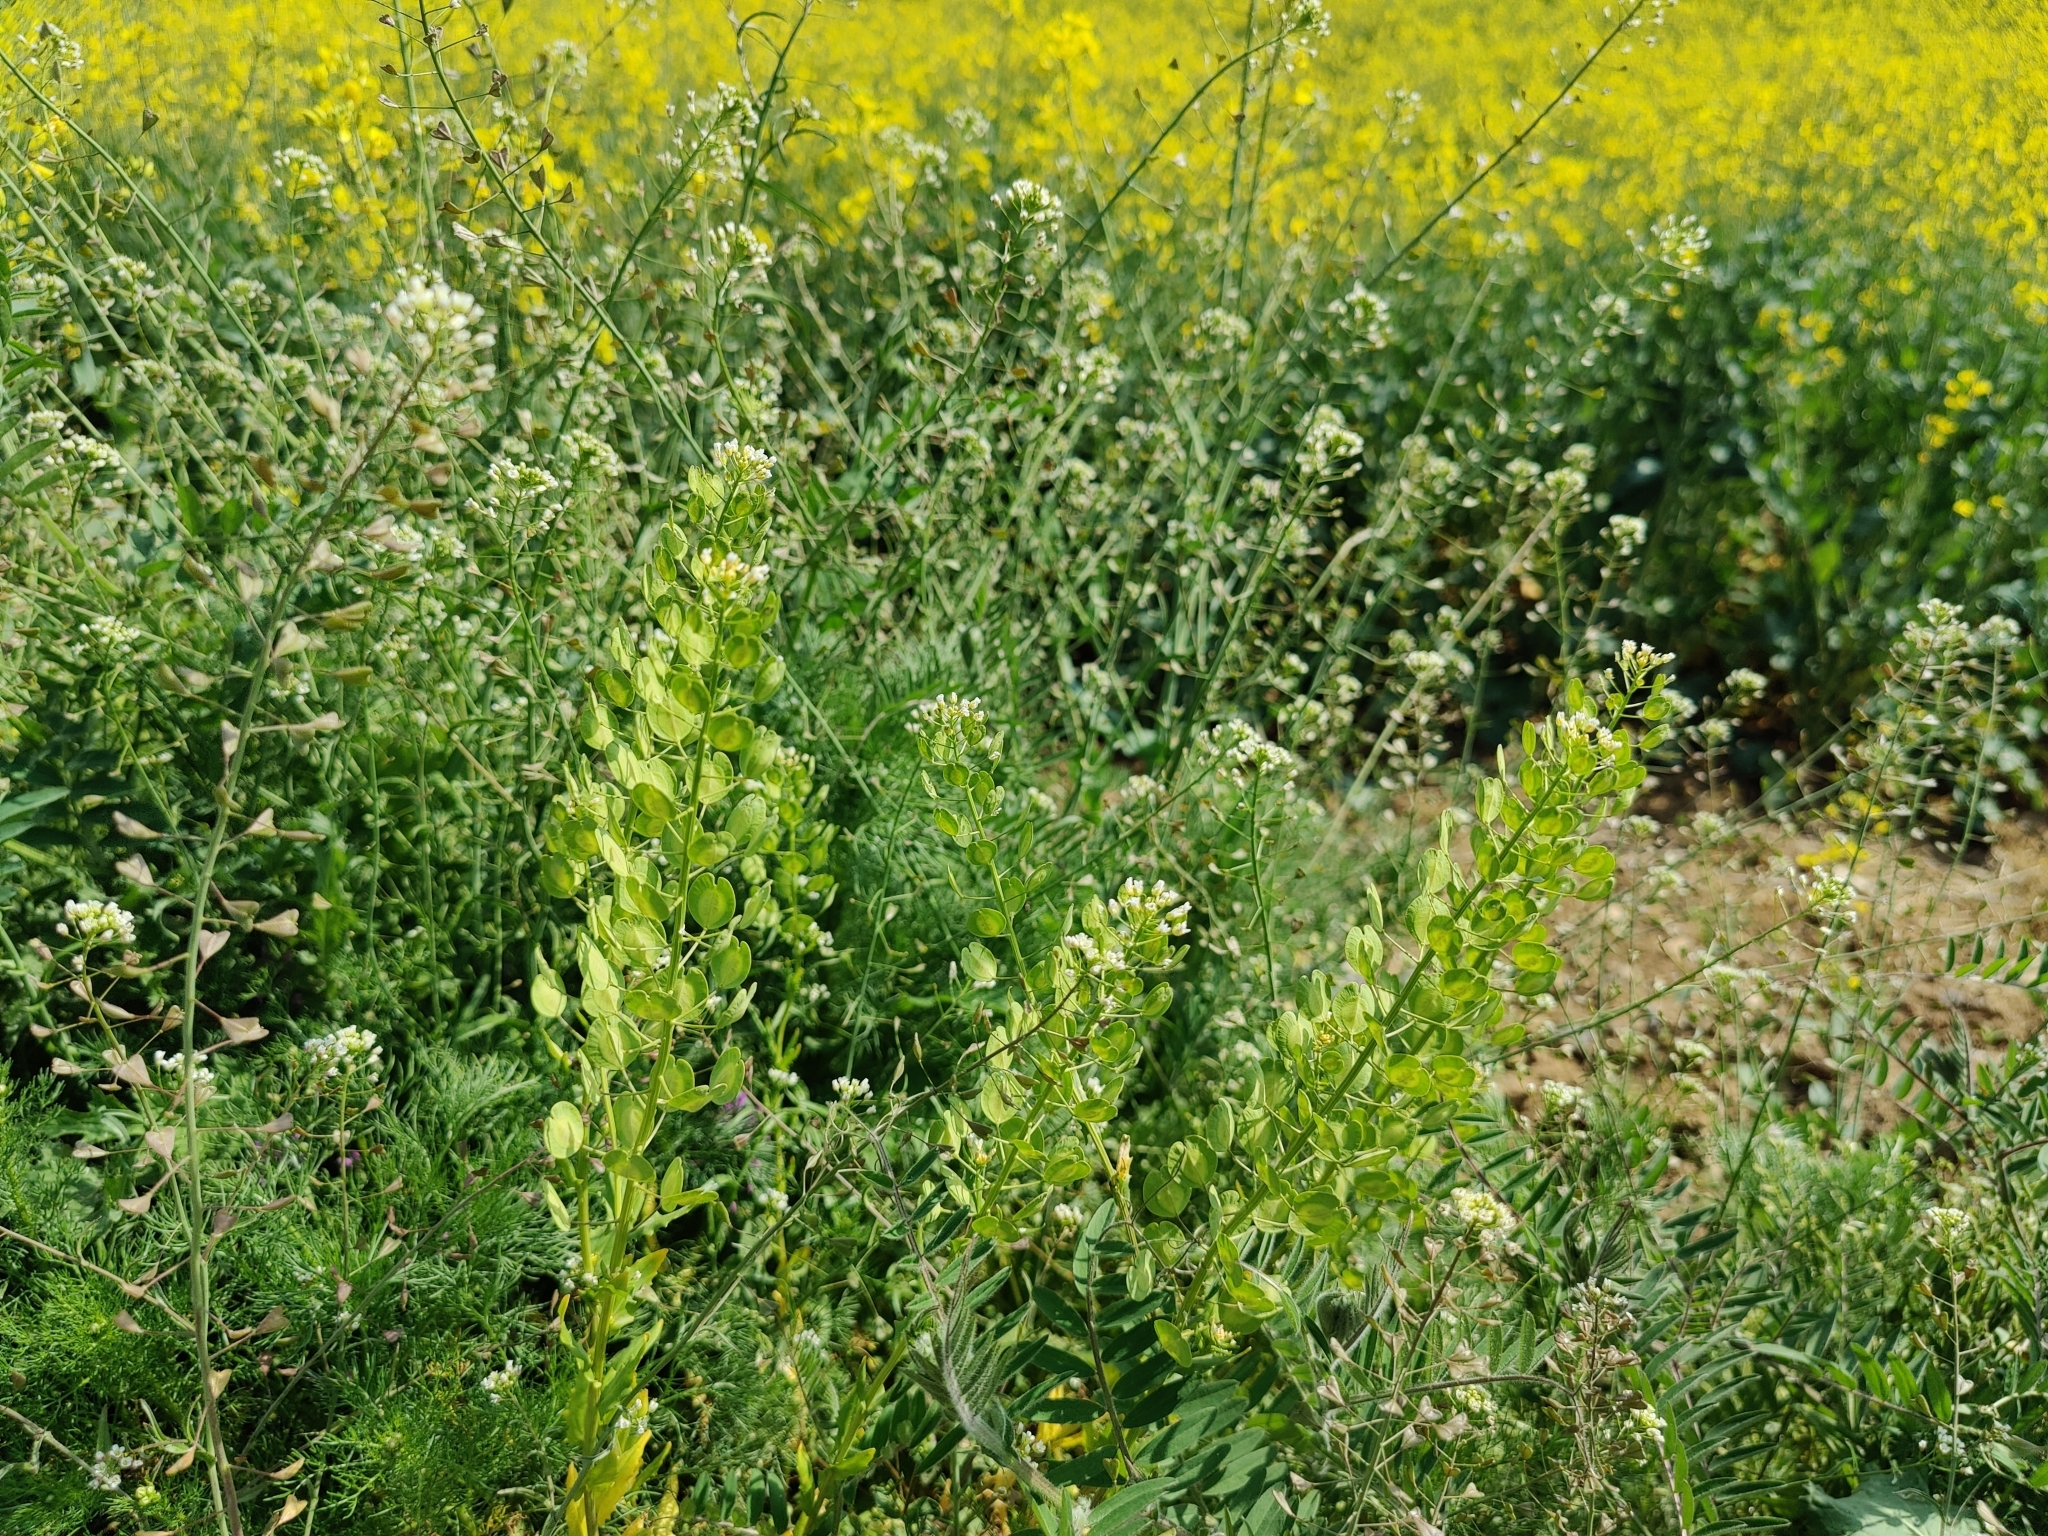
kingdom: Plantae
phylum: Tracheophyta
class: Magnoliopsida
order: Brassicales
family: Brassicaceae
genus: Thlaspi
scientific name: Thlaspi arvense
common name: Field pennycress
